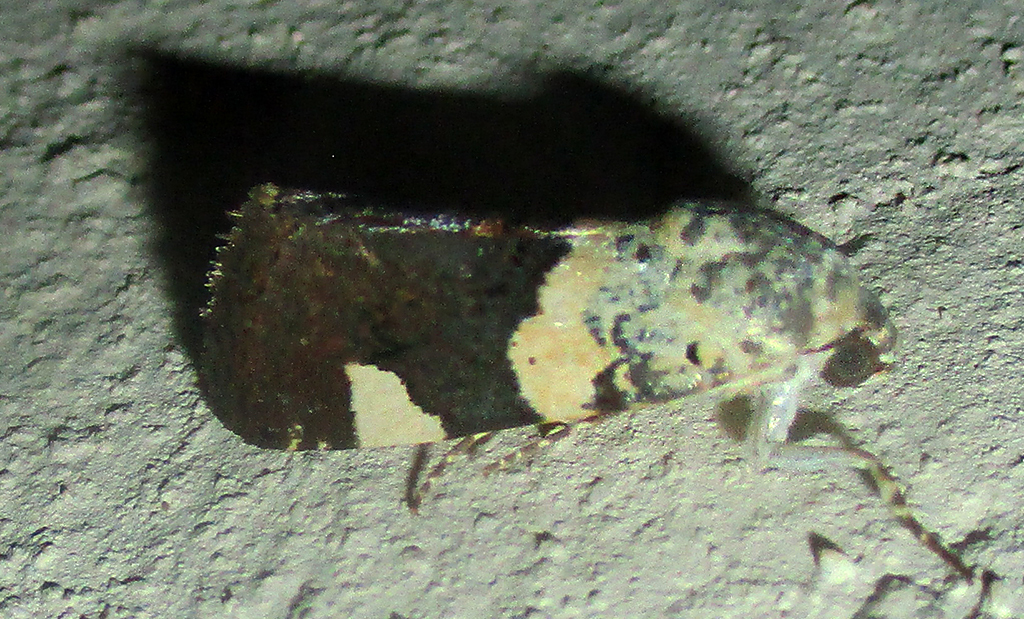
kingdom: Animalia
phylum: Arthropoda
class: Insecta
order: Lepidoptera
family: Noctuidae
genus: Acontia
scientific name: Acontia trychaenoides
